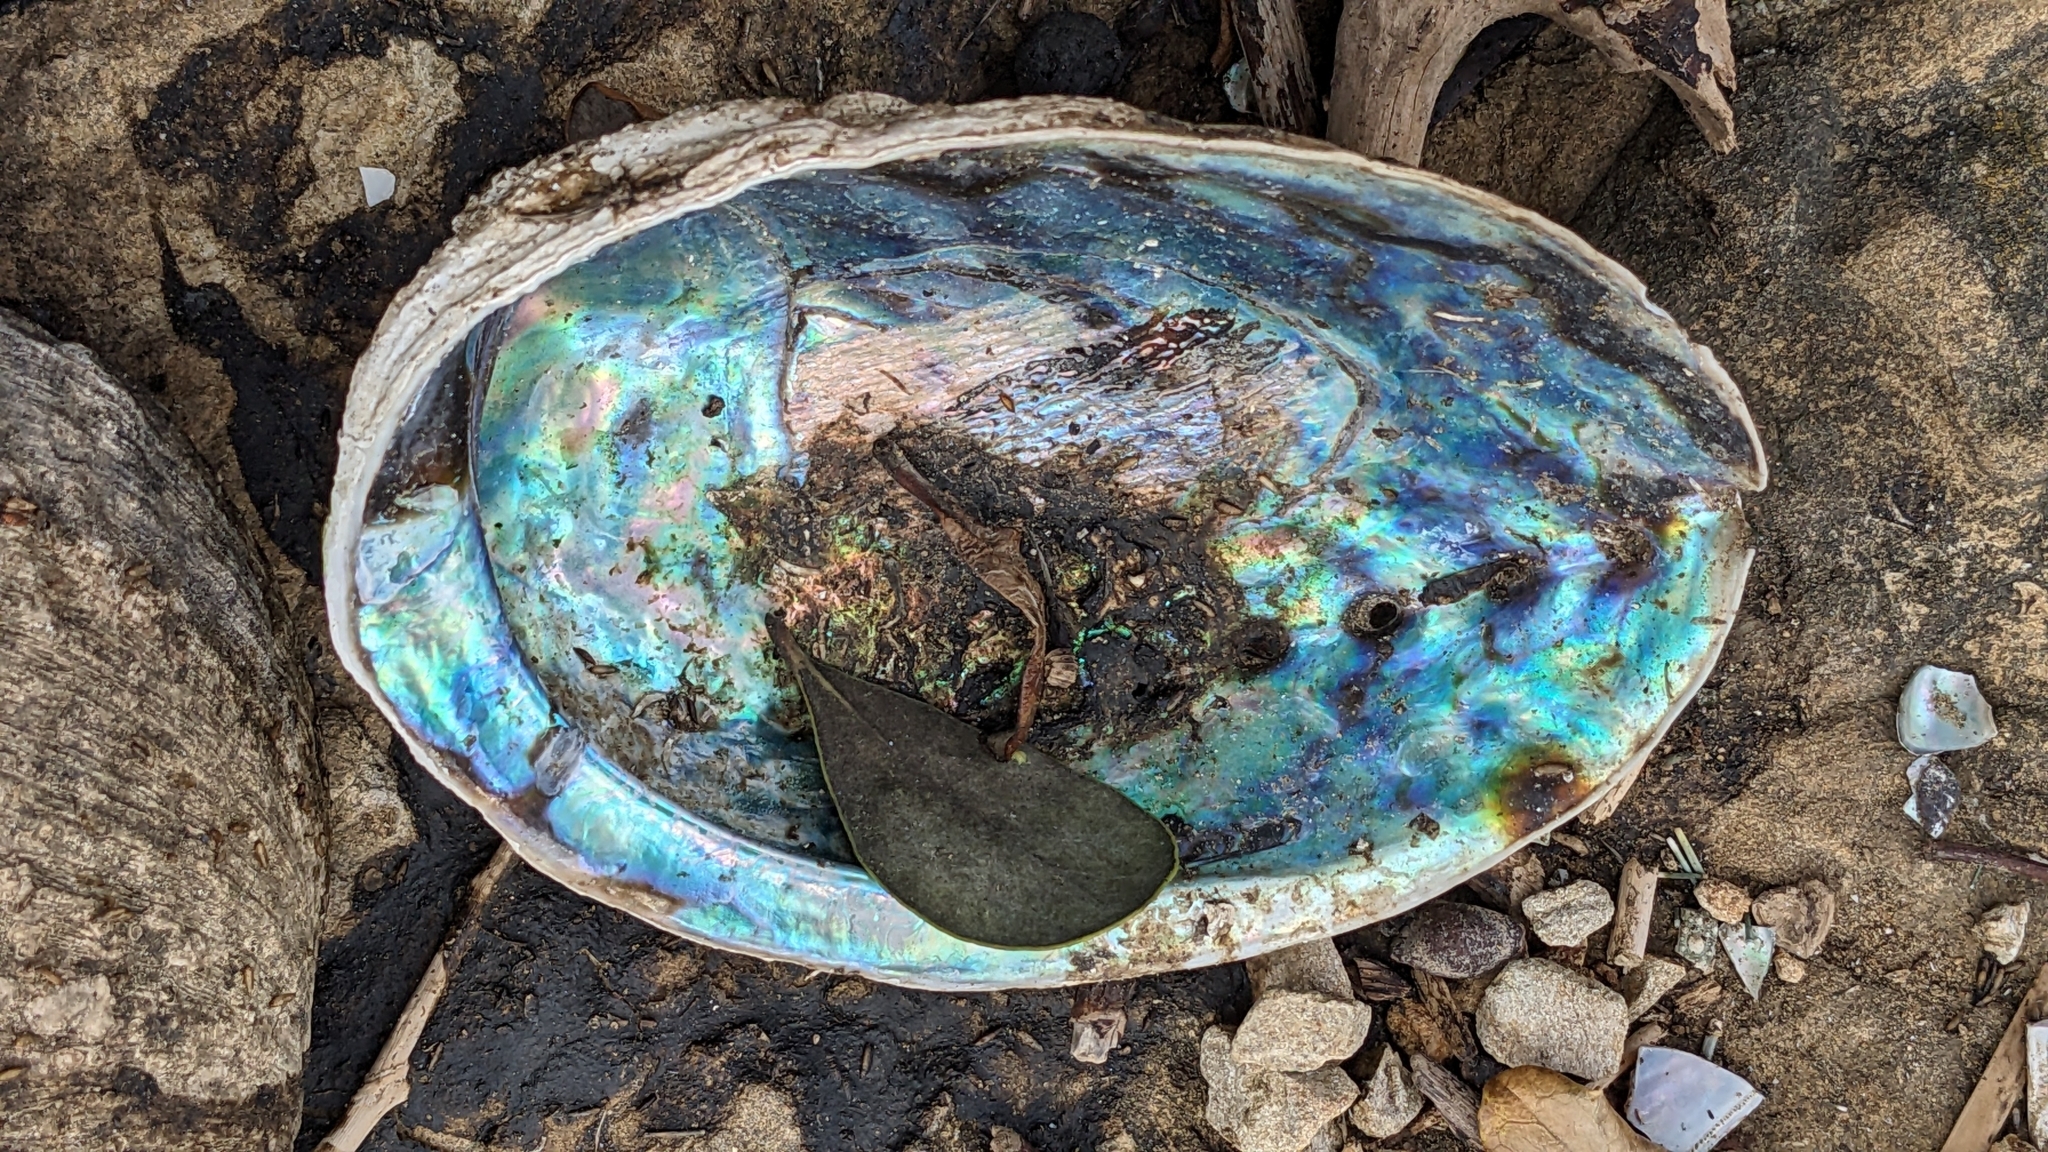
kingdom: Animalia
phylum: Mollusca
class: Gastropoda
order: Lepetellida
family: Haliotidae
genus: Haliotis
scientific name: Haliotis iris
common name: Abalone
